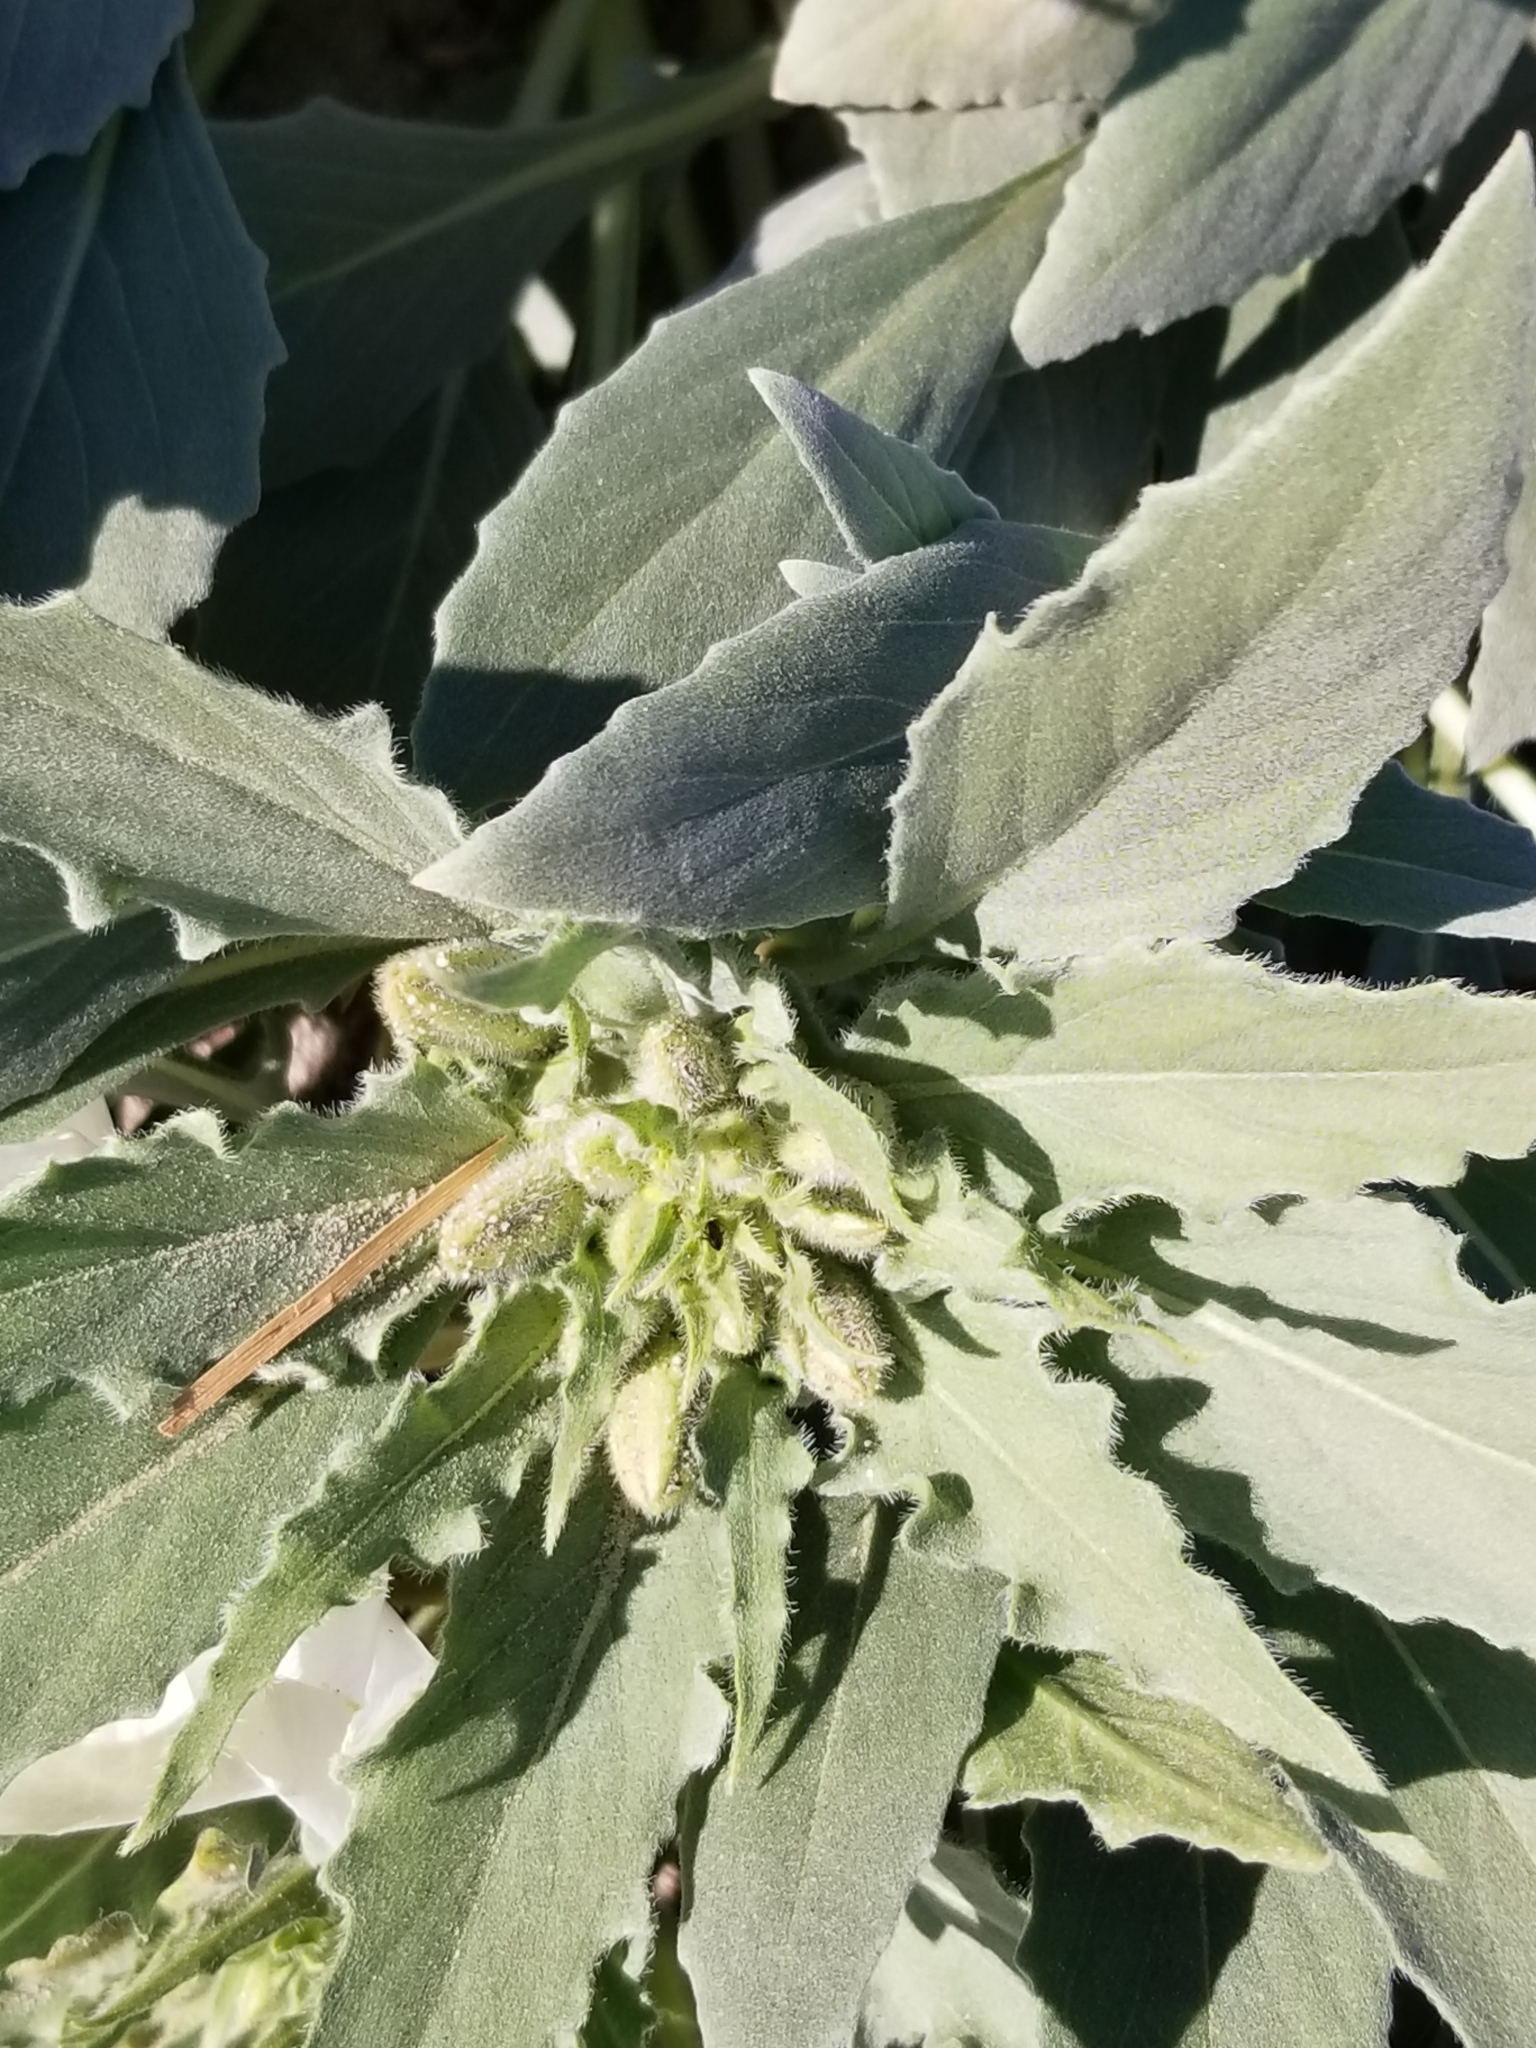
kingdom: Plantae
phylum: Tracheophyta
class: Magnoliopsida
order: Myrtales
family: Onagraceae
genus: Oenothera
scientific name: Oenothera deltoides
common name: Basket evening-primrose
